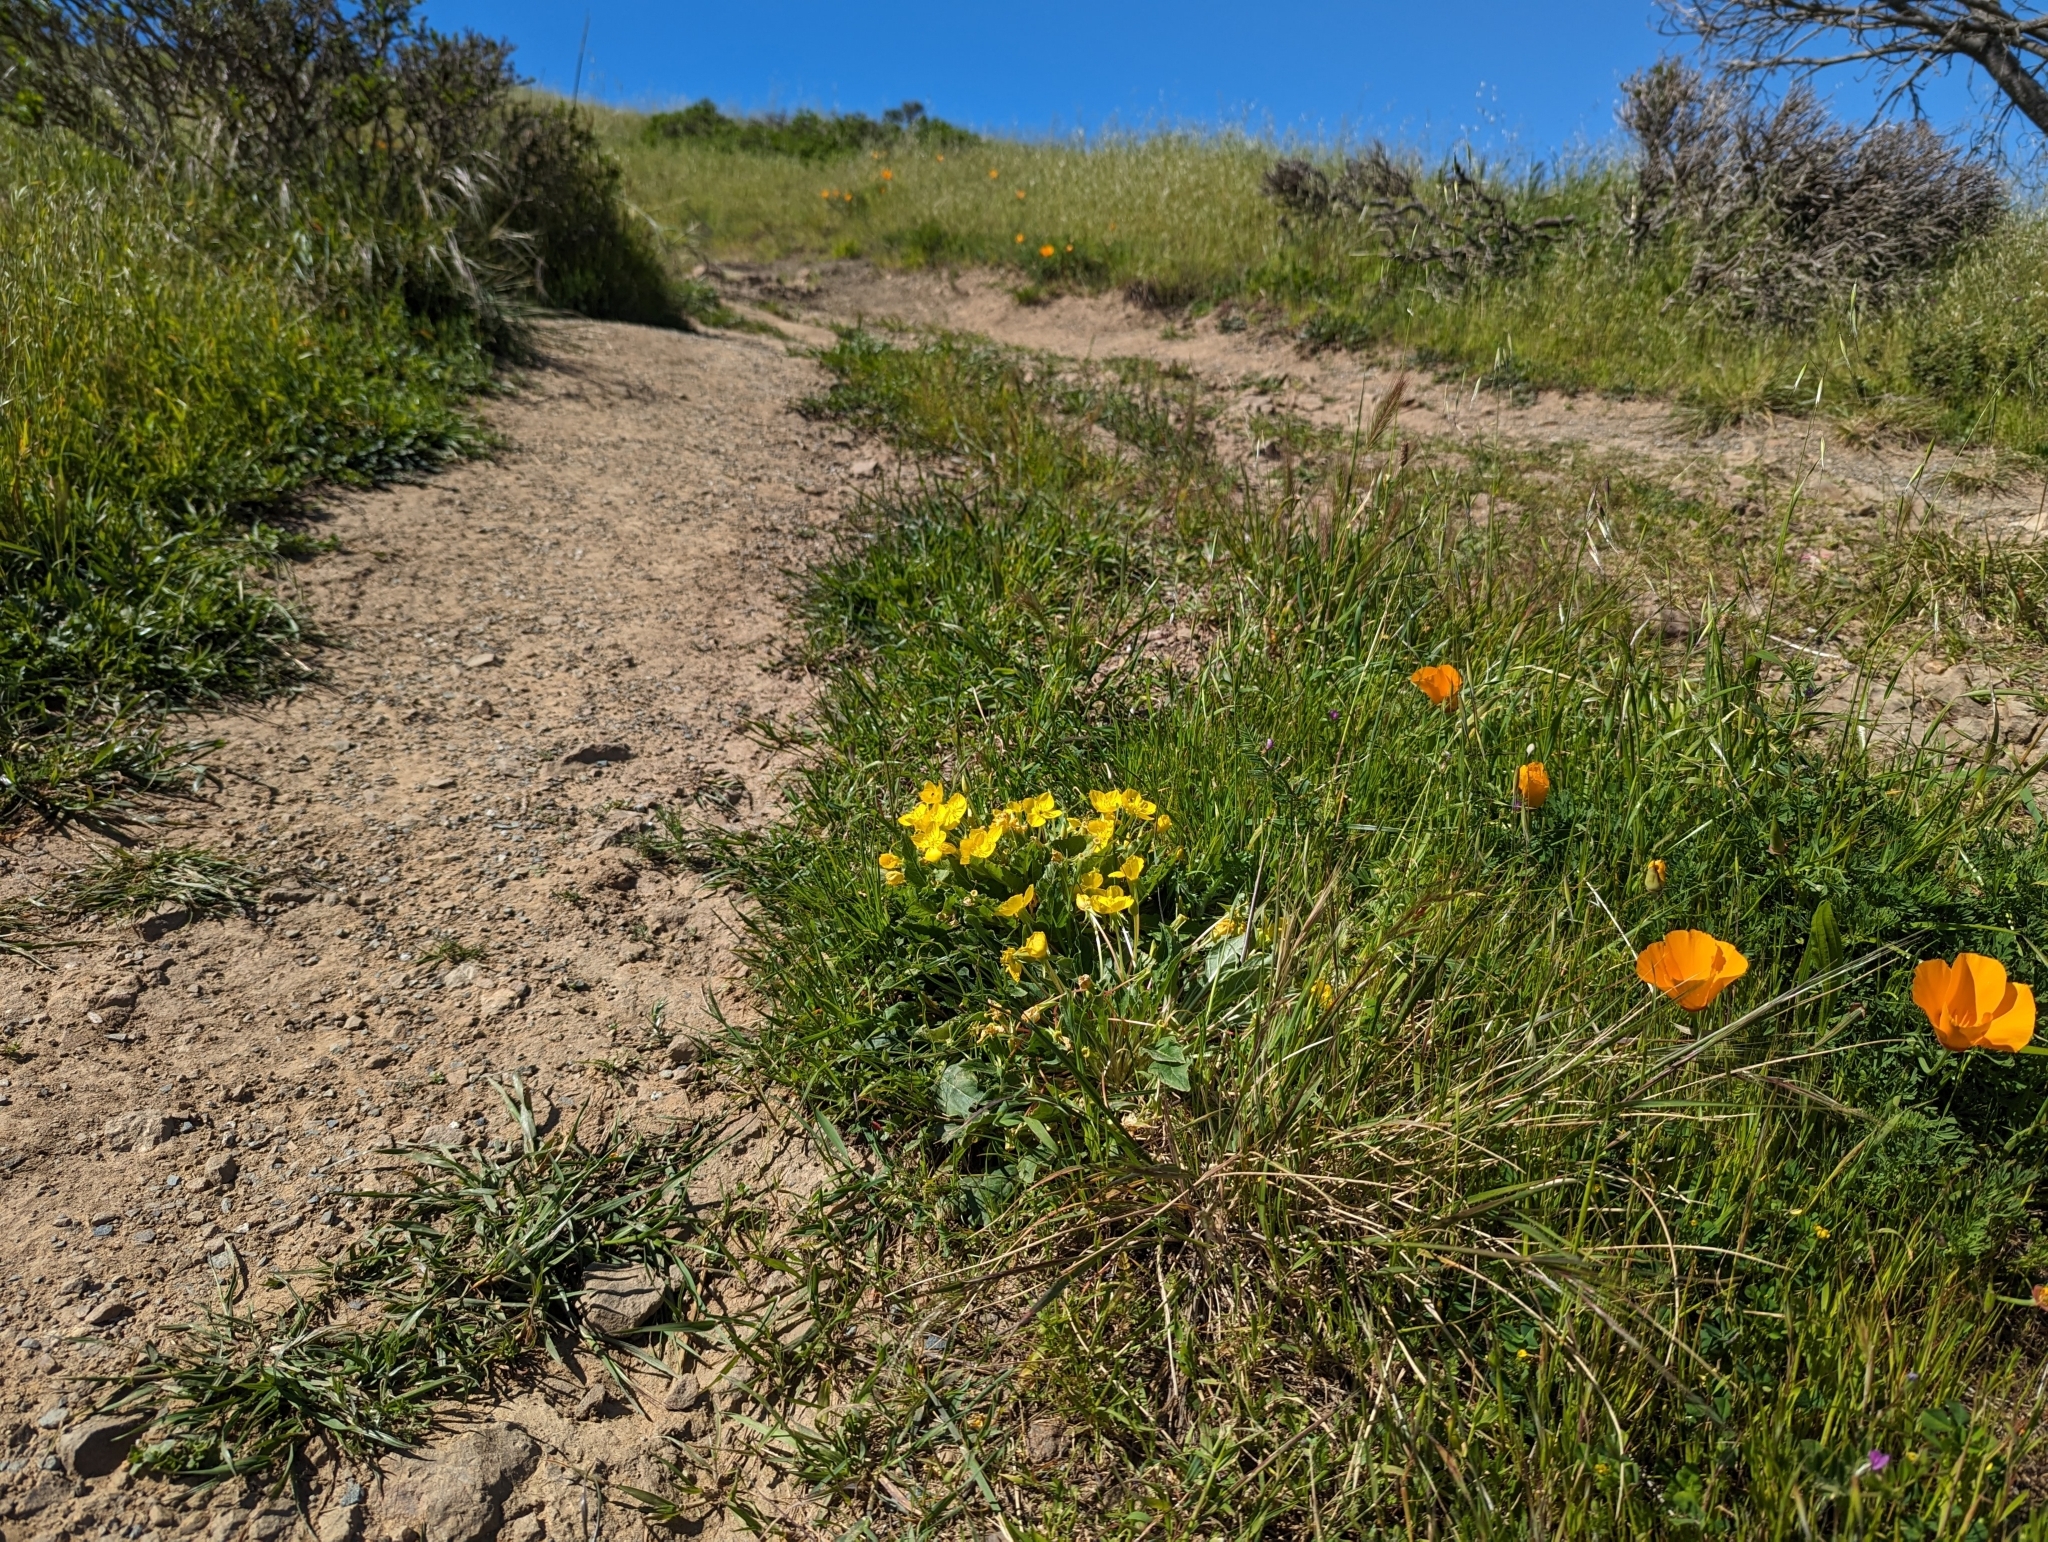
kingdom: Plantae
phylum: Tracheophyta
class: Magnoliopsida
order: Myrtales
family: Onagraceae
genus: Taraxia
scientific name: Taraxia ovata
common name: Goldeneggs
